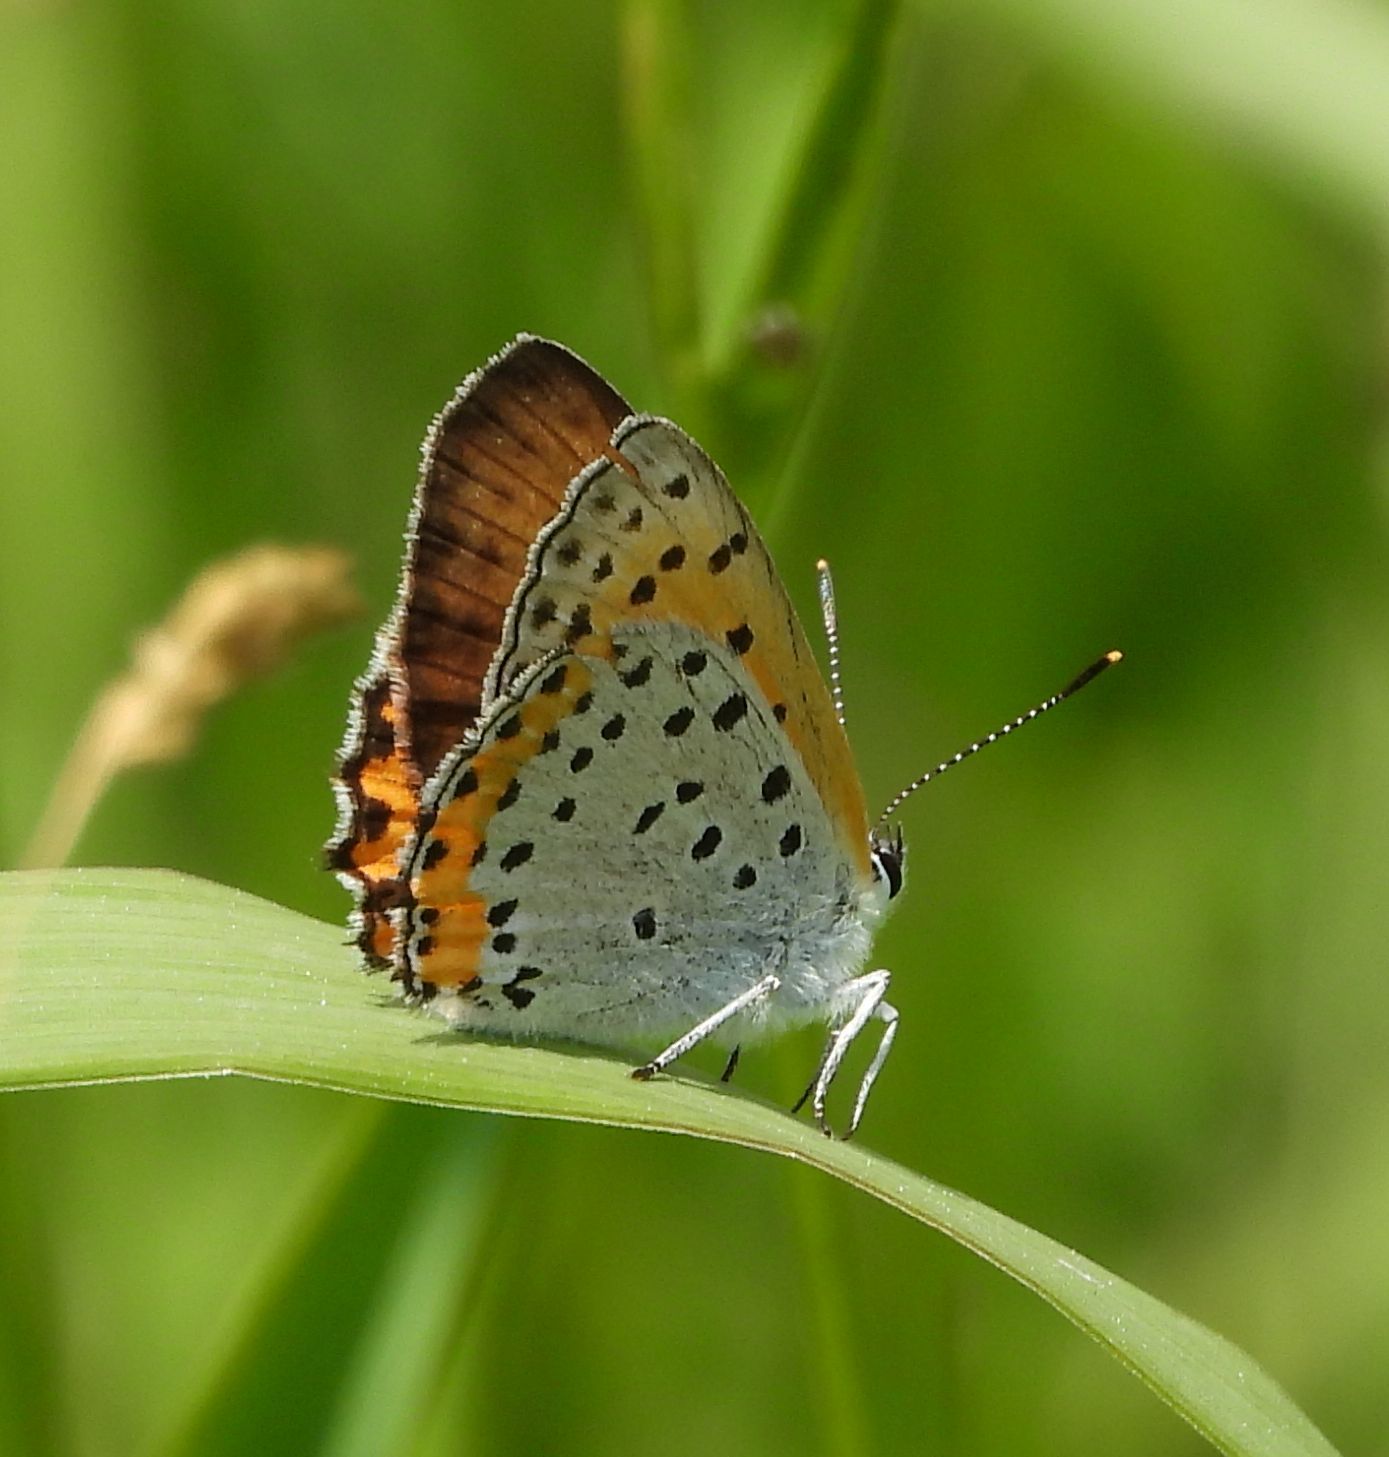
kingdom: Animalia
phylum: Arthropoda
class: Insecta
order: Lepidoptera
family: Lycaenidae
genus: Tharsalea
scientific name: Tharsalea hyllus
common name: Bronze copper
